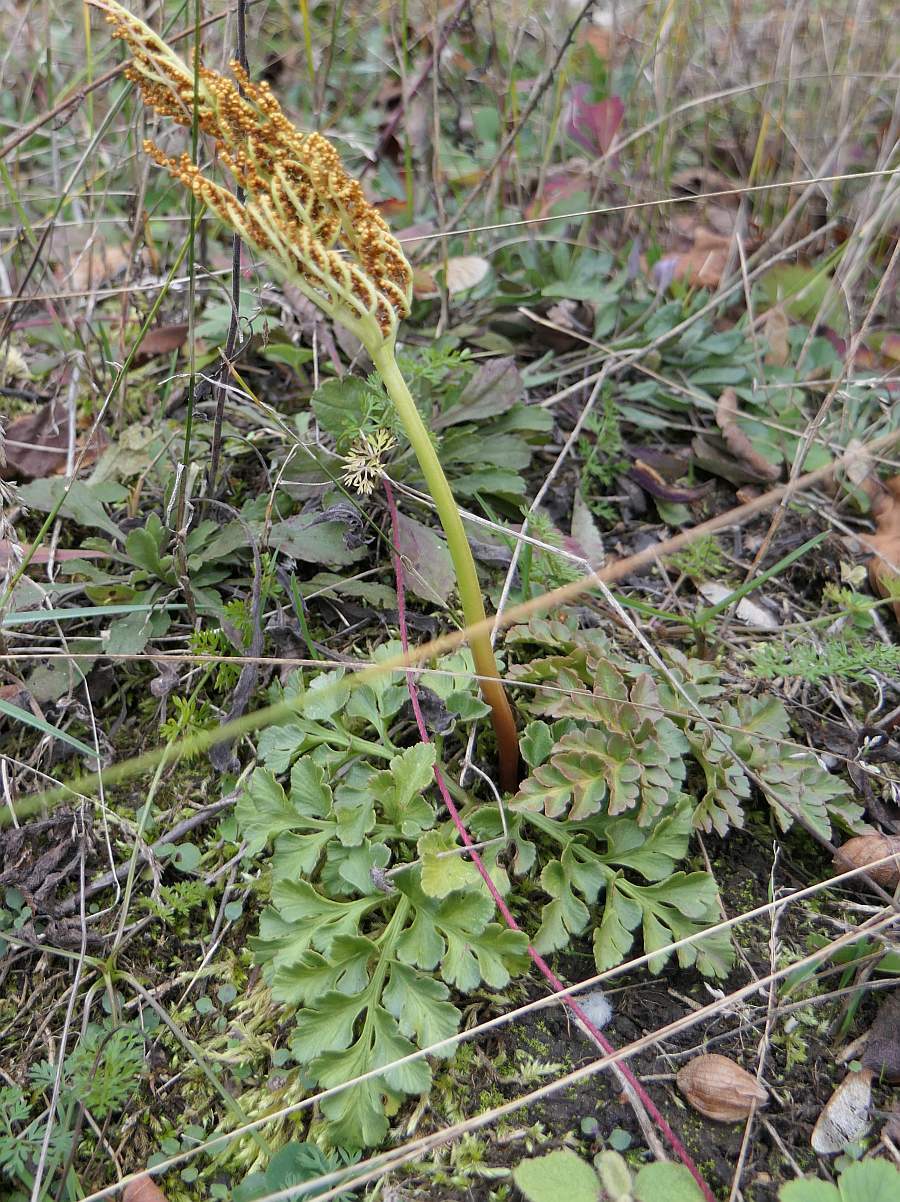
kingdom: Plantae
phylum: Tracheophyta
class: Polypodiopsida
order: Ophioglossales
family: Ophioglossaceae
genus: Sceptridium
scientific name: Sceptridium multifidum
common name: Leathery grape fern
